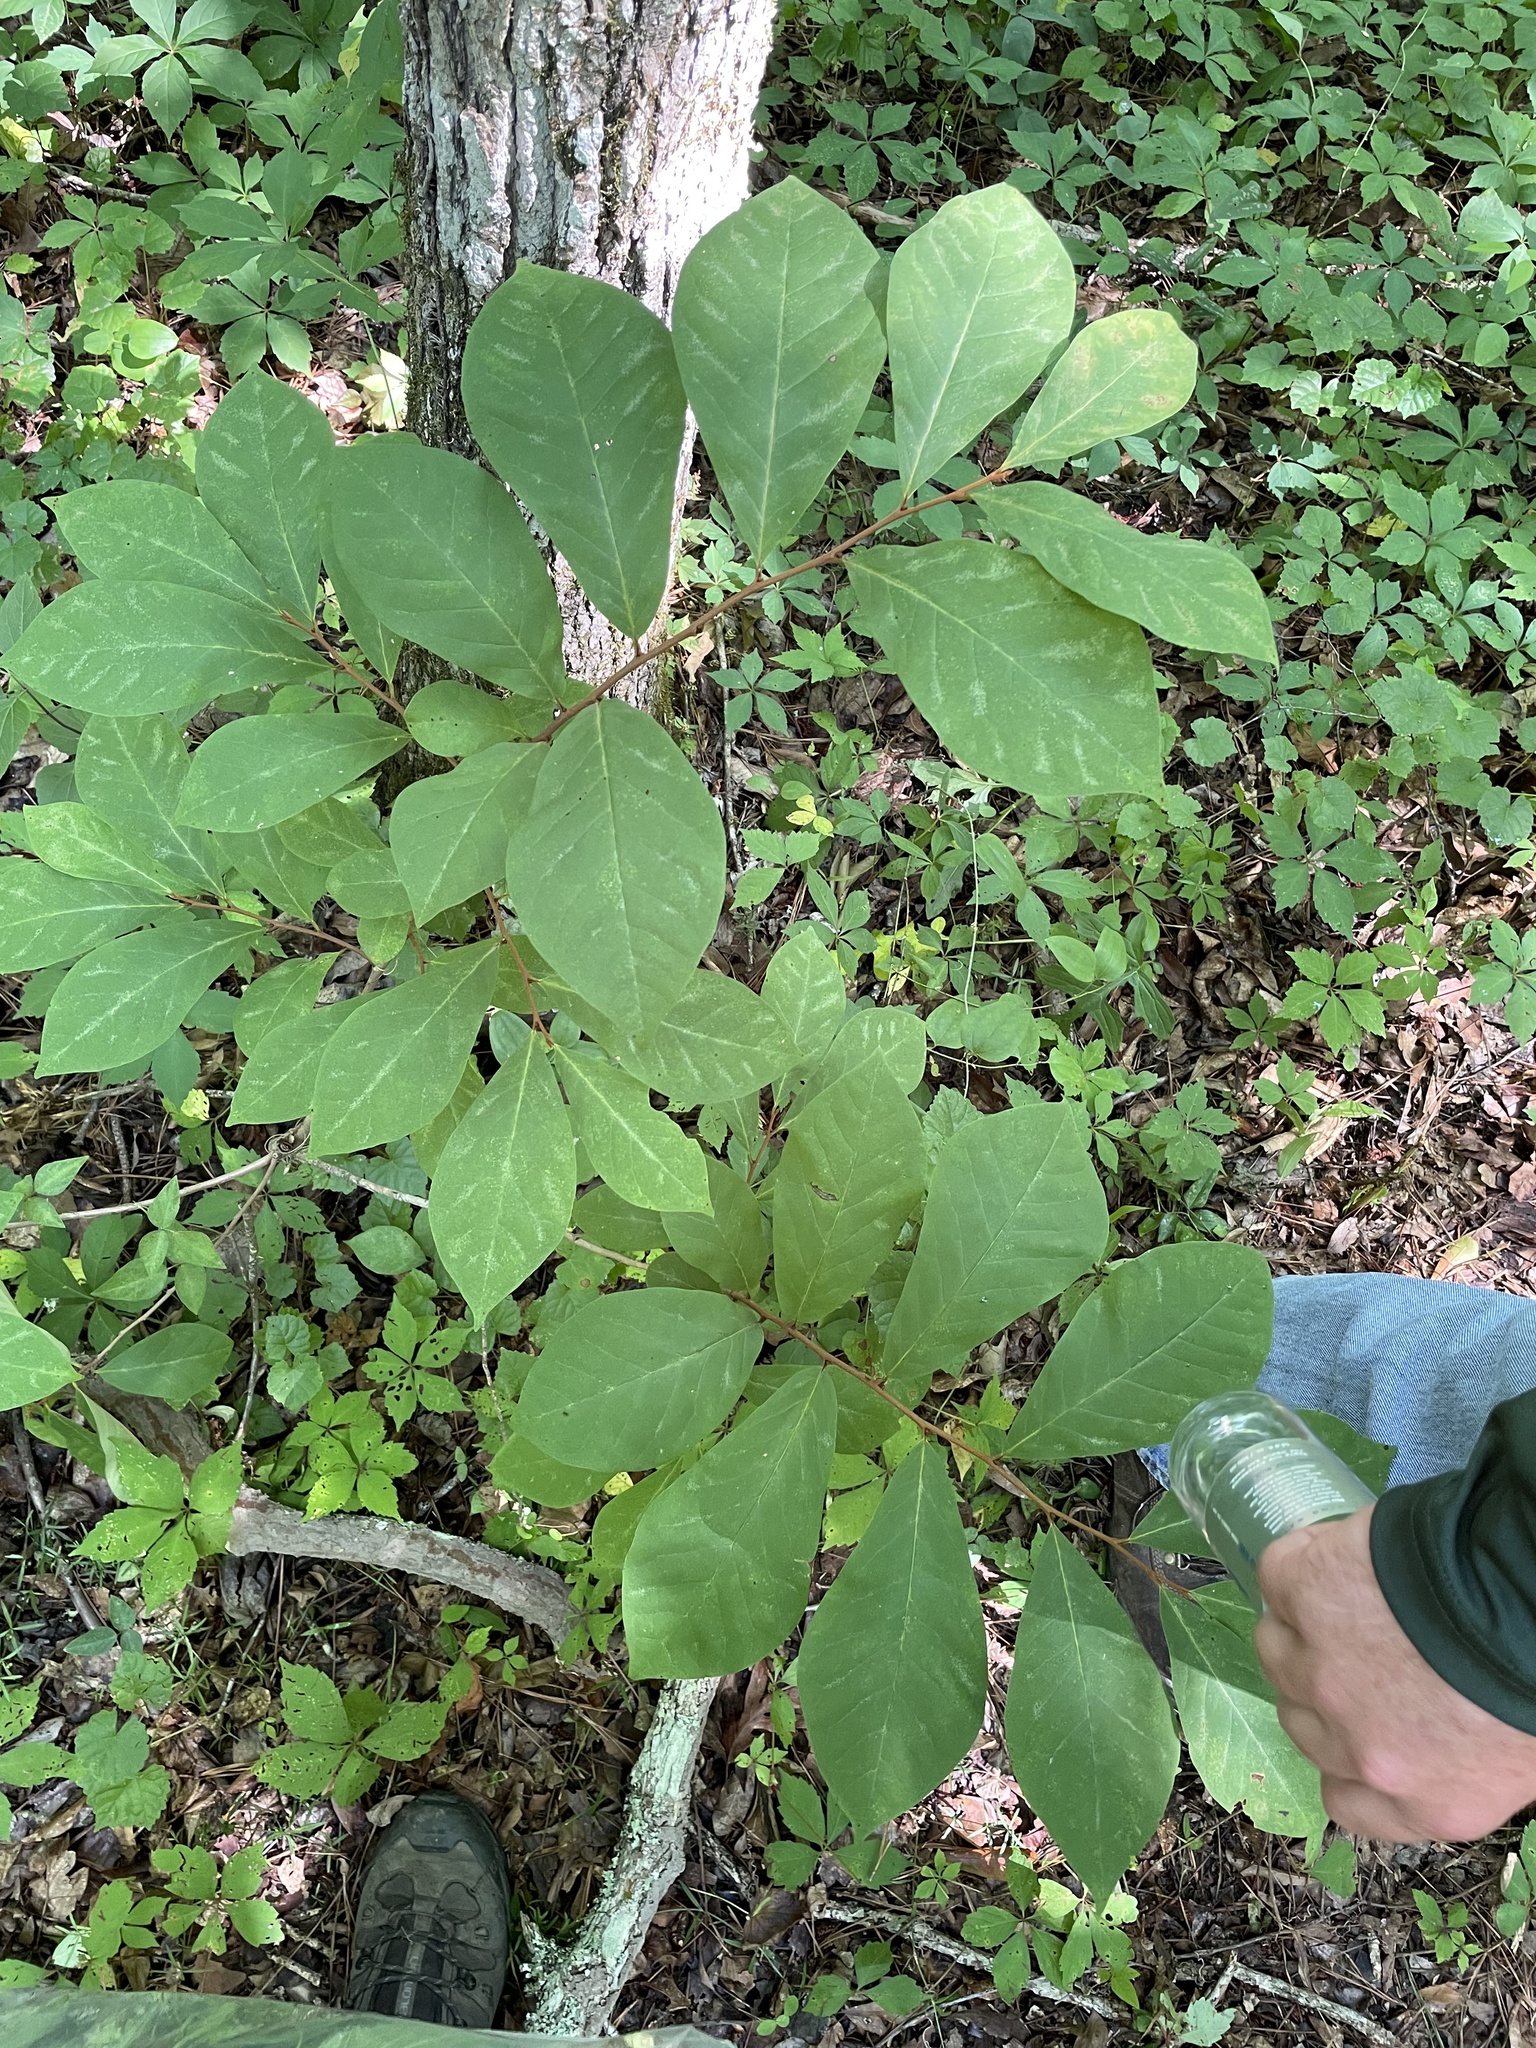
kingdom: Plantae
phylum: Tracheophyta
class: Magnoliopsida
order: Magnoliales
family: Annonaceae
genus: Asimina
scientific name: Asimina parviflora
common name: Dwarf pawpaw
